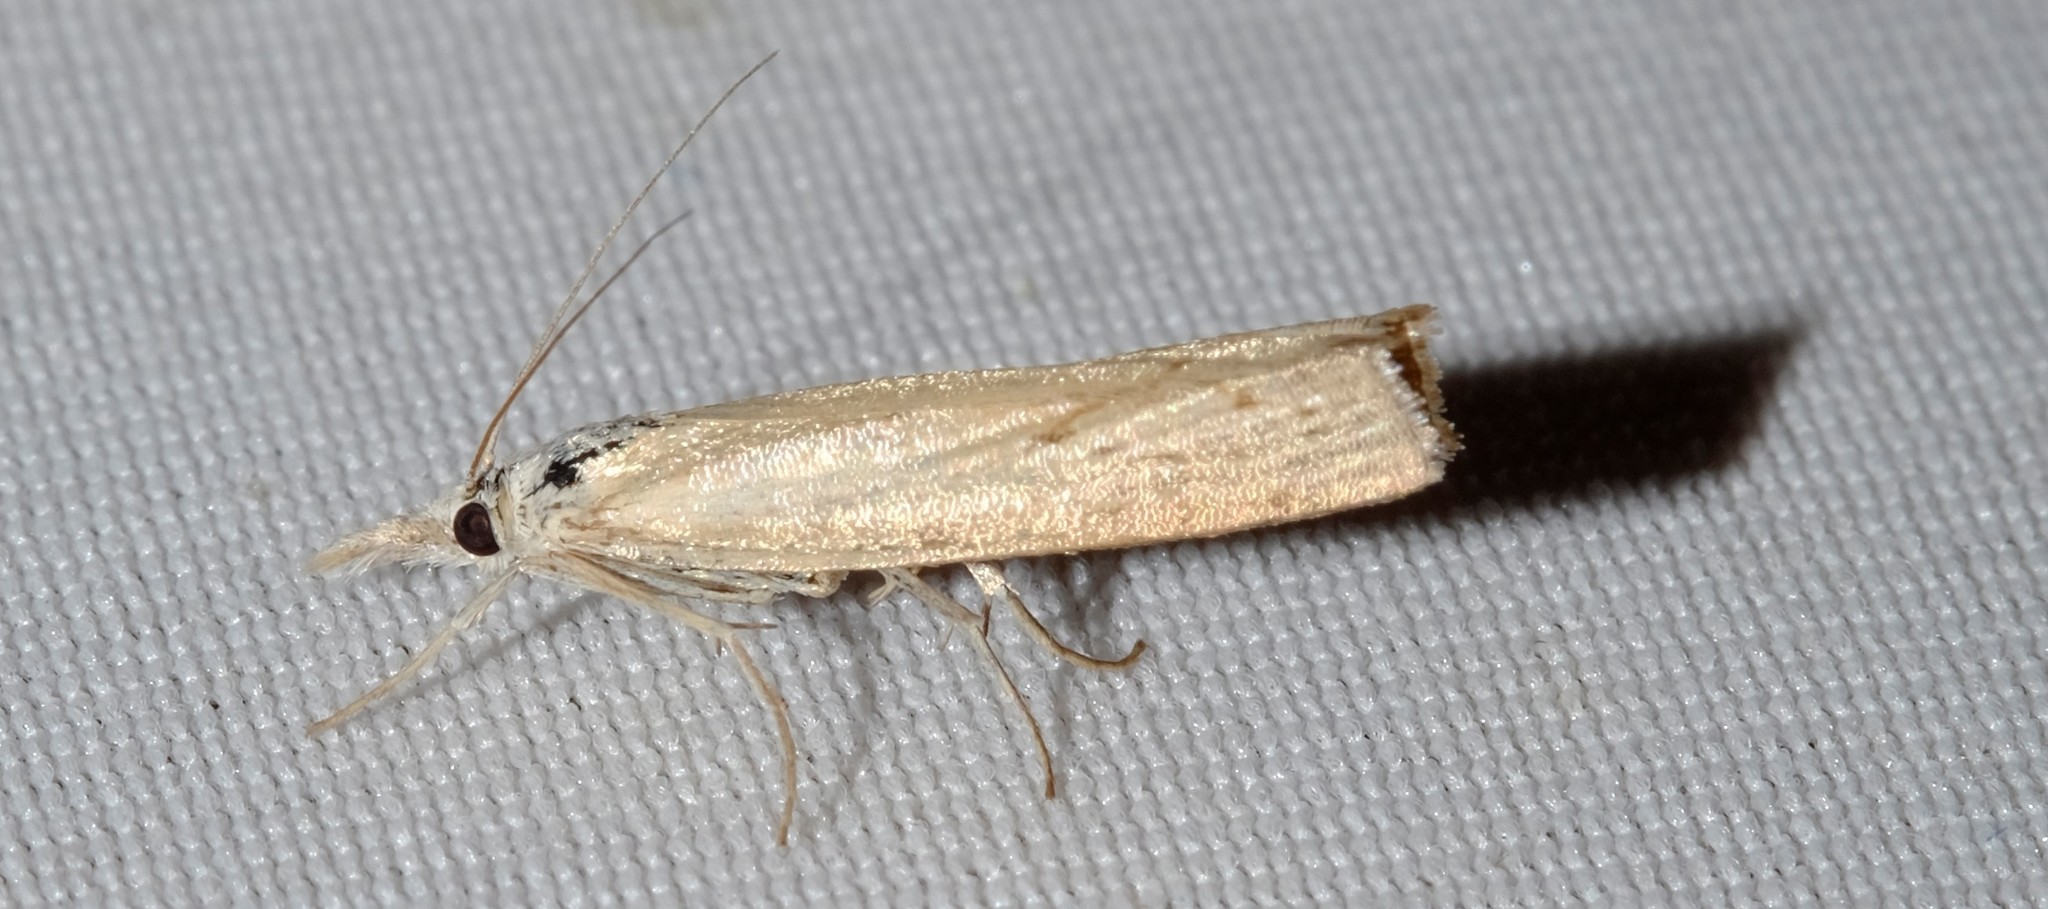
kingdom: Animalia
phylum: Arthropoda
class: Insecta
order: Lepidoptera
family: Crambidae
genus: Culladia
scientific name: Culladia cuneiferellus
